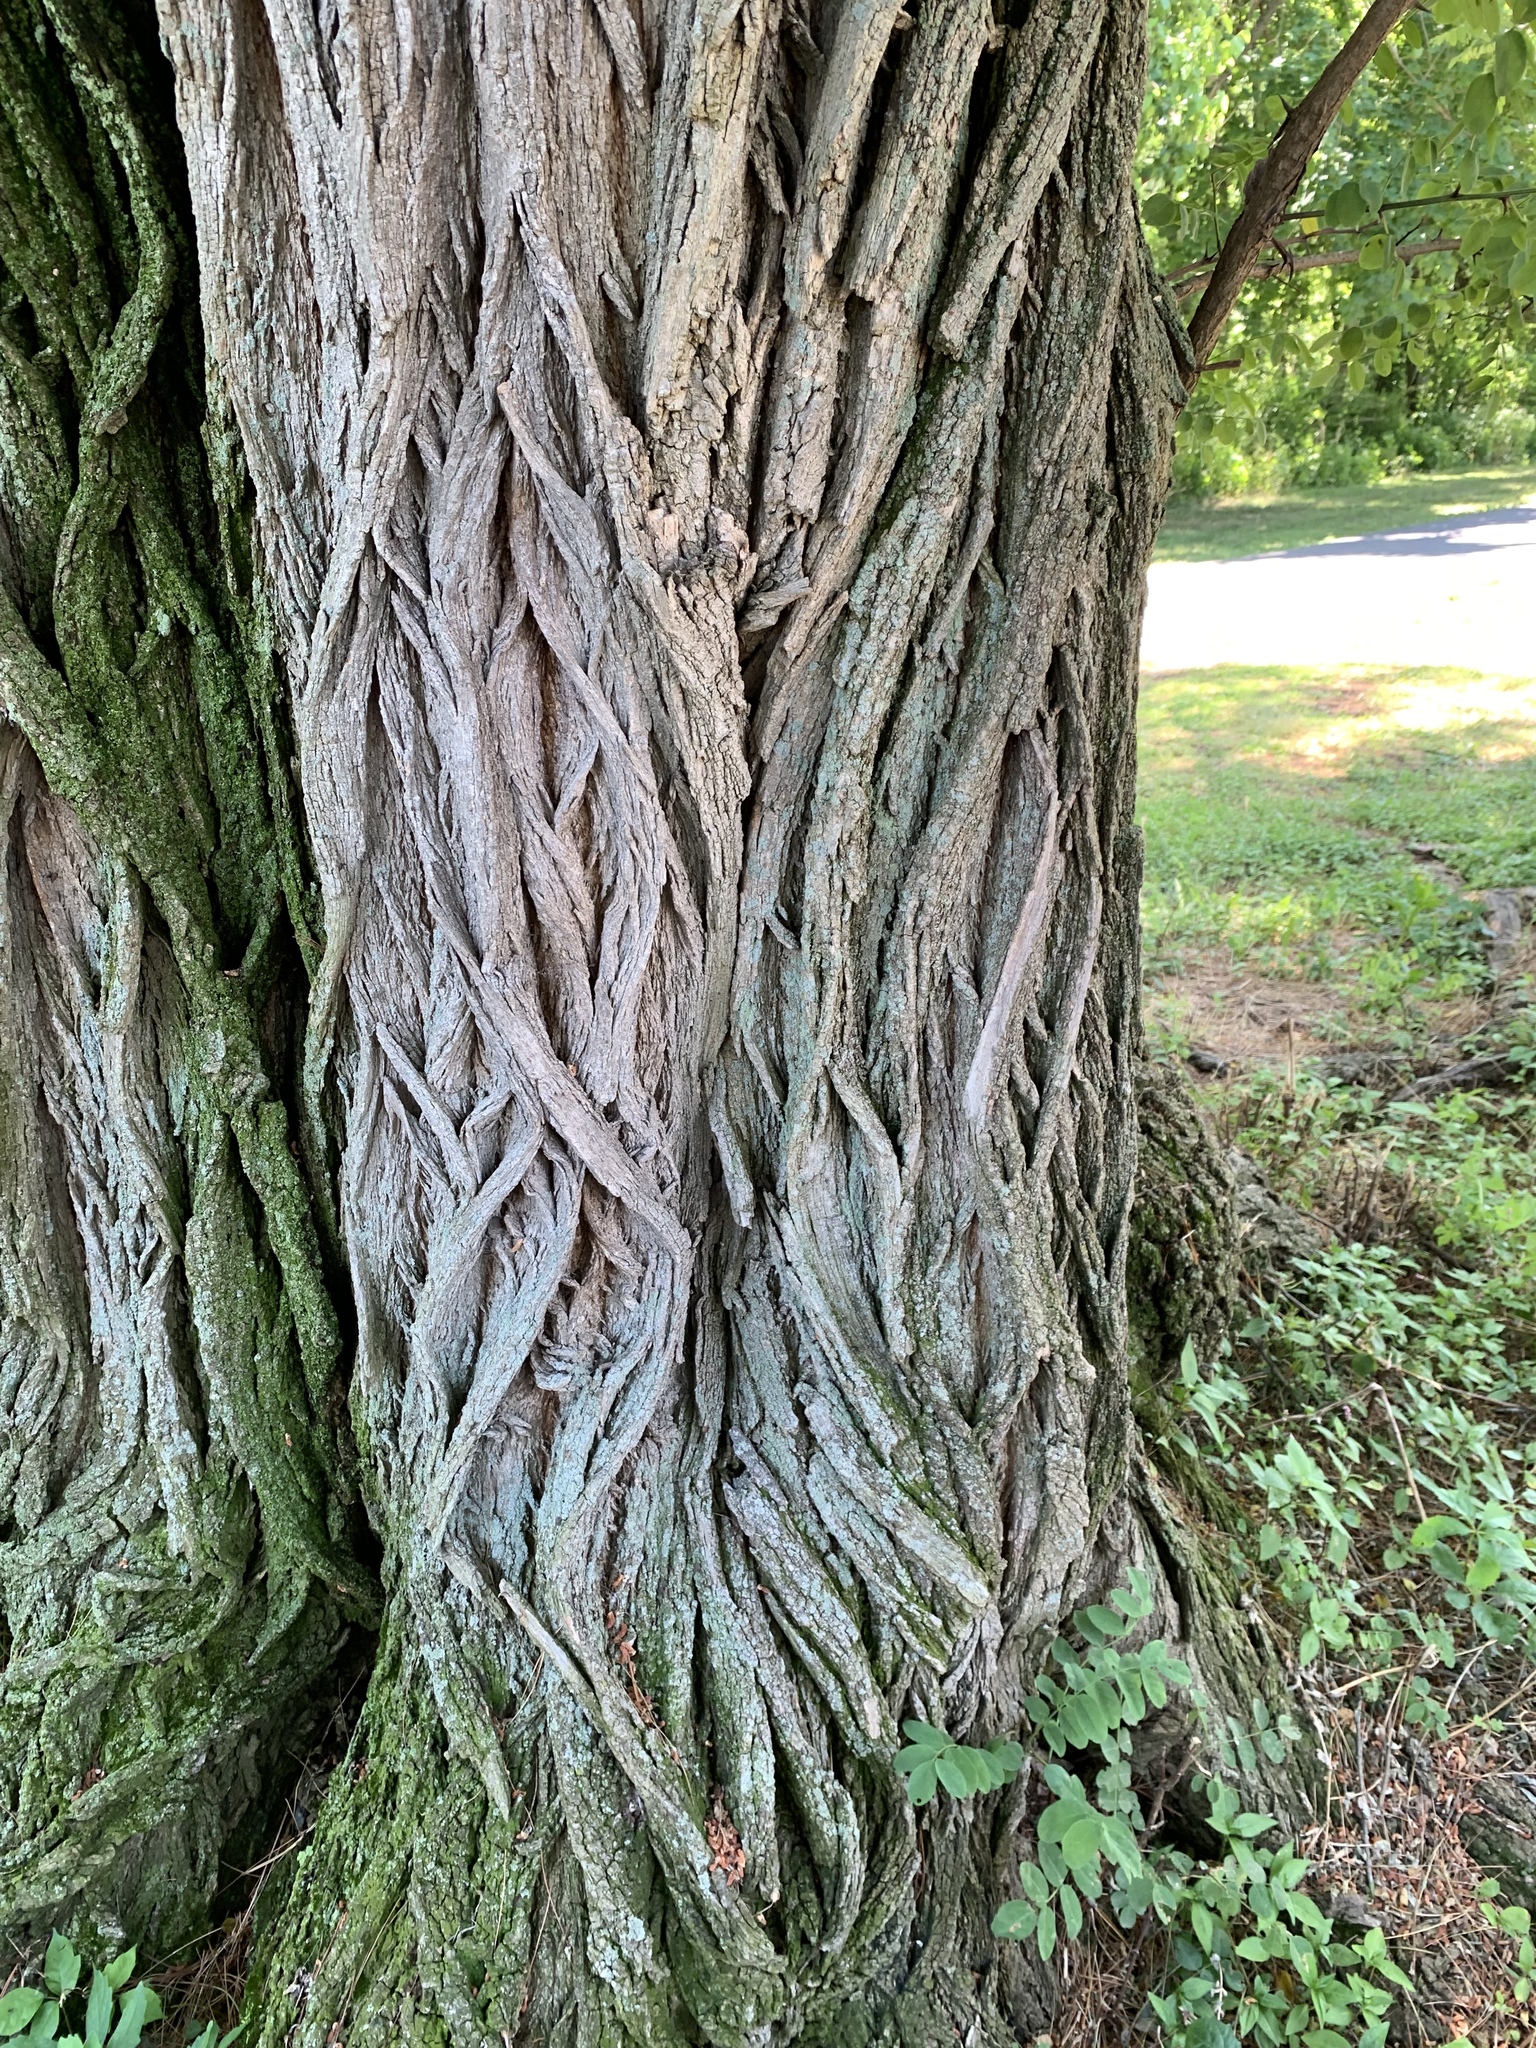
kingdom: Plantae
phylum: Tracheophyta
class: Magnoliopsida
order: Fabales
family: Fabaceae
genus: Robinia
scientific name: Robinia pseudoacacia
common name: Black locust
